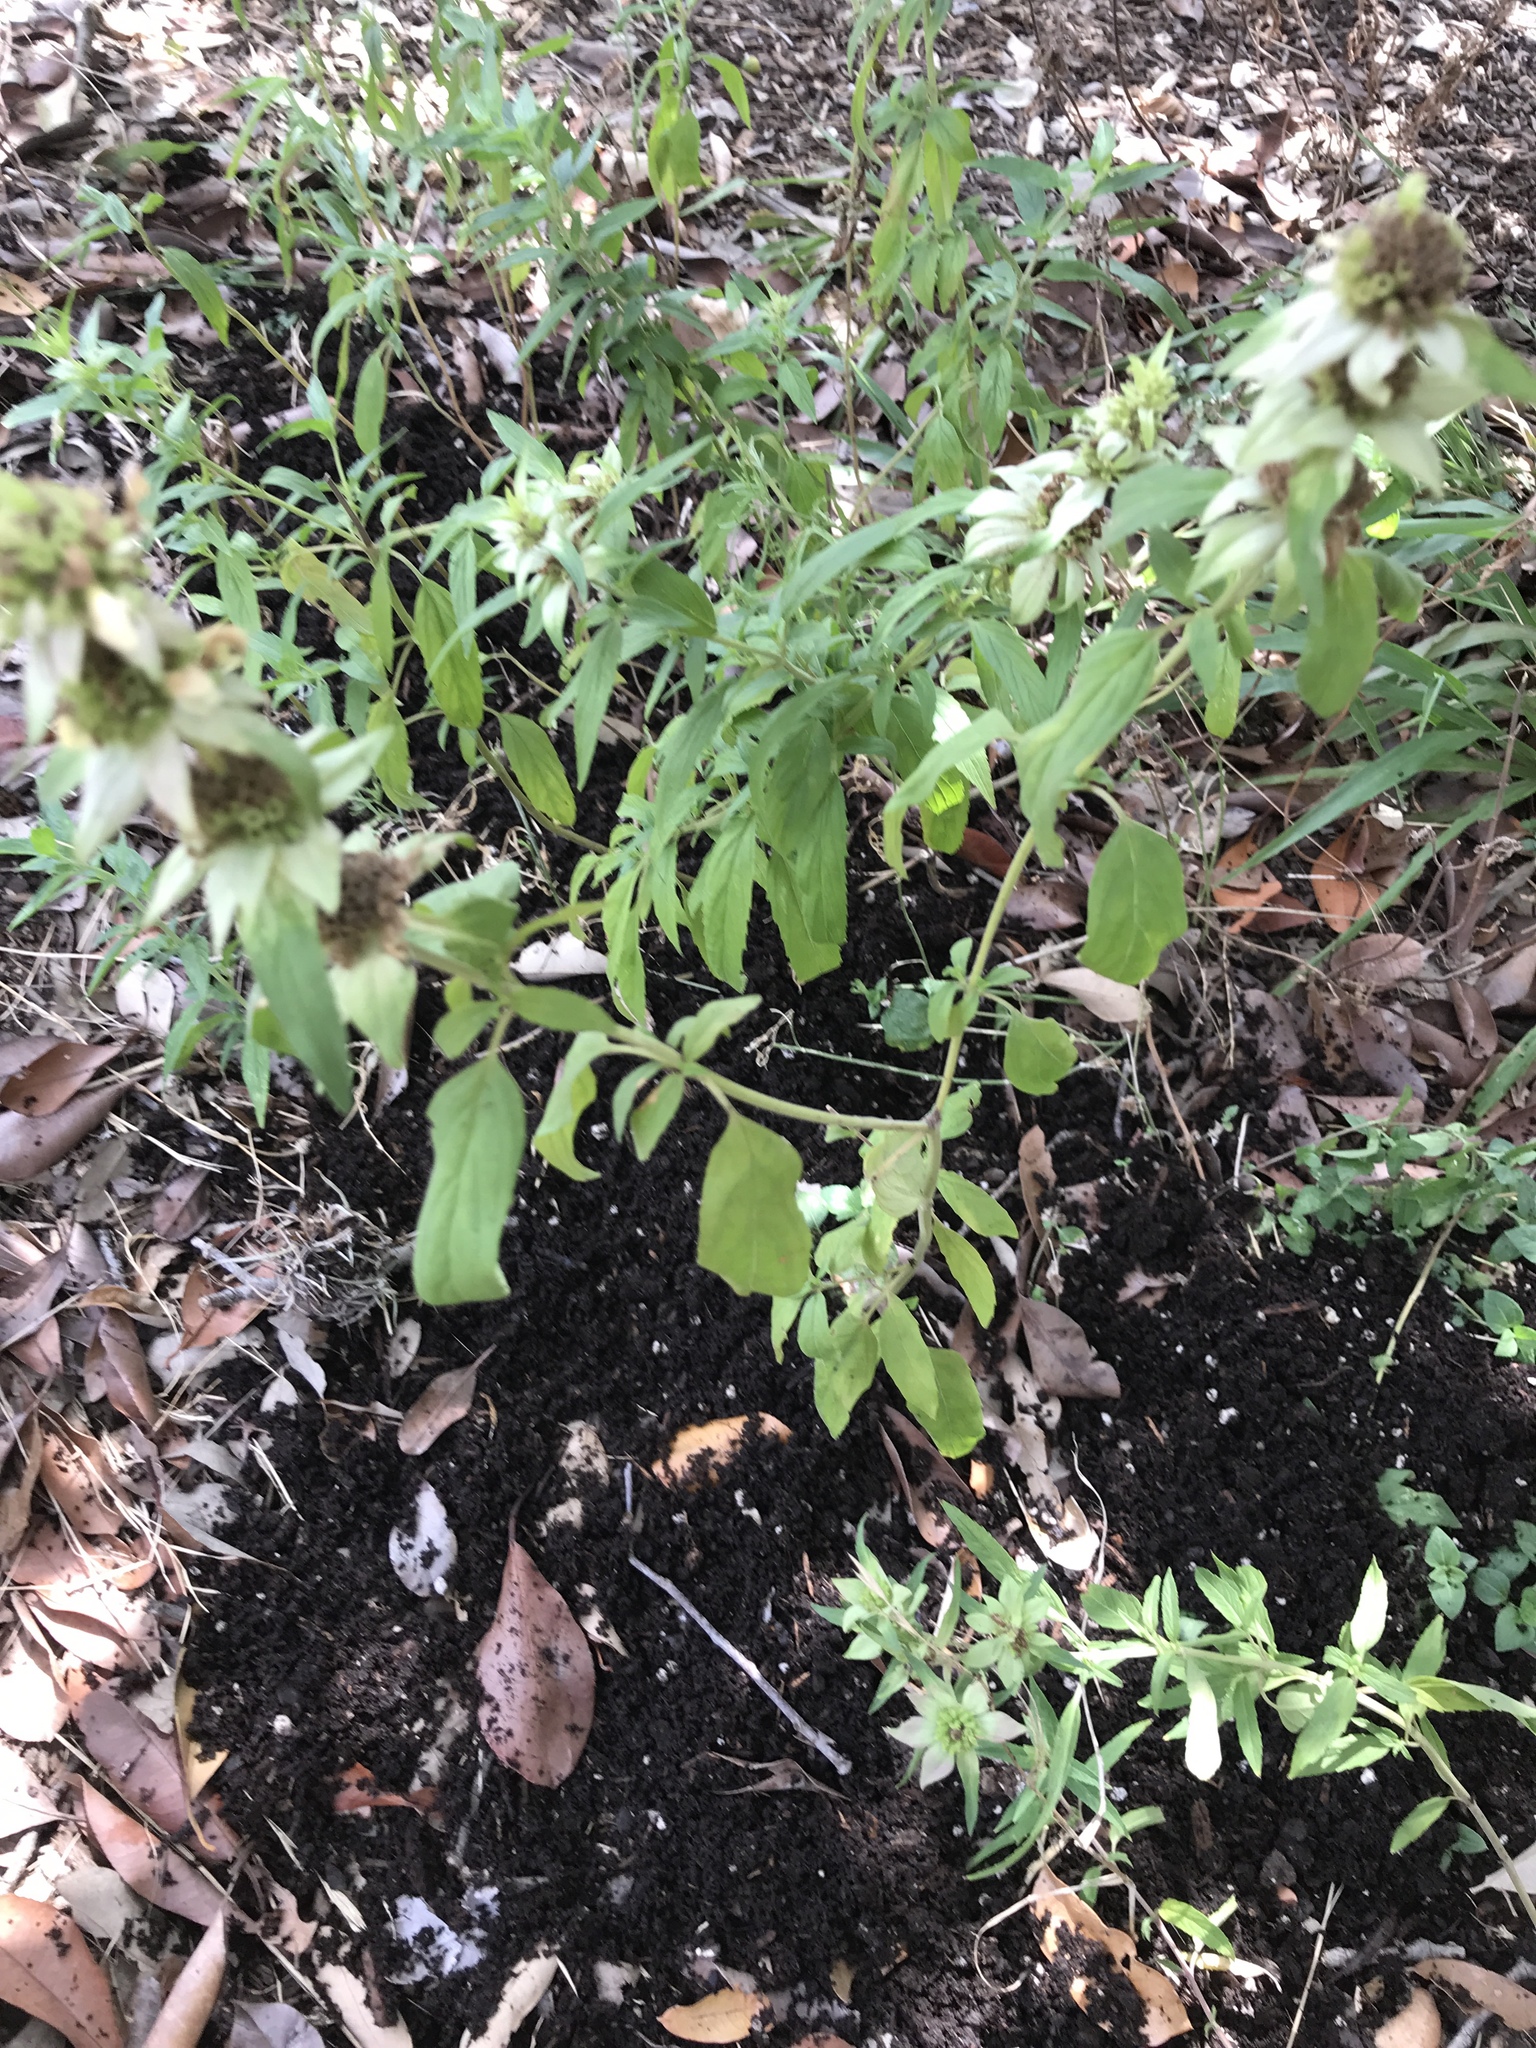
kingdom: Plantae
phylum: Tracheophyta
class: Magnoliopsida
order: Lamiales
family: Lamiaceae
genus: Monarda
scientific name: Monarda punctata
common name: Dotted monarda
